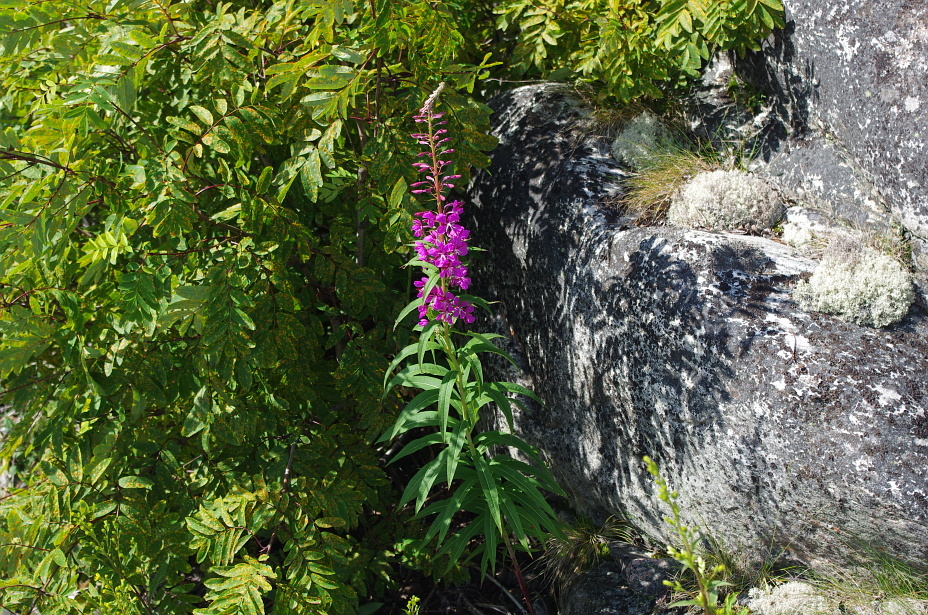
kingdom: Plantae
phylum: Tracheophyta
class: Magnoliopsida
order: Myrtales
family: Onagraceae
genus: Chamaenerion
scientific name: Chamaenerion angustifolium
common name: Fireweed
